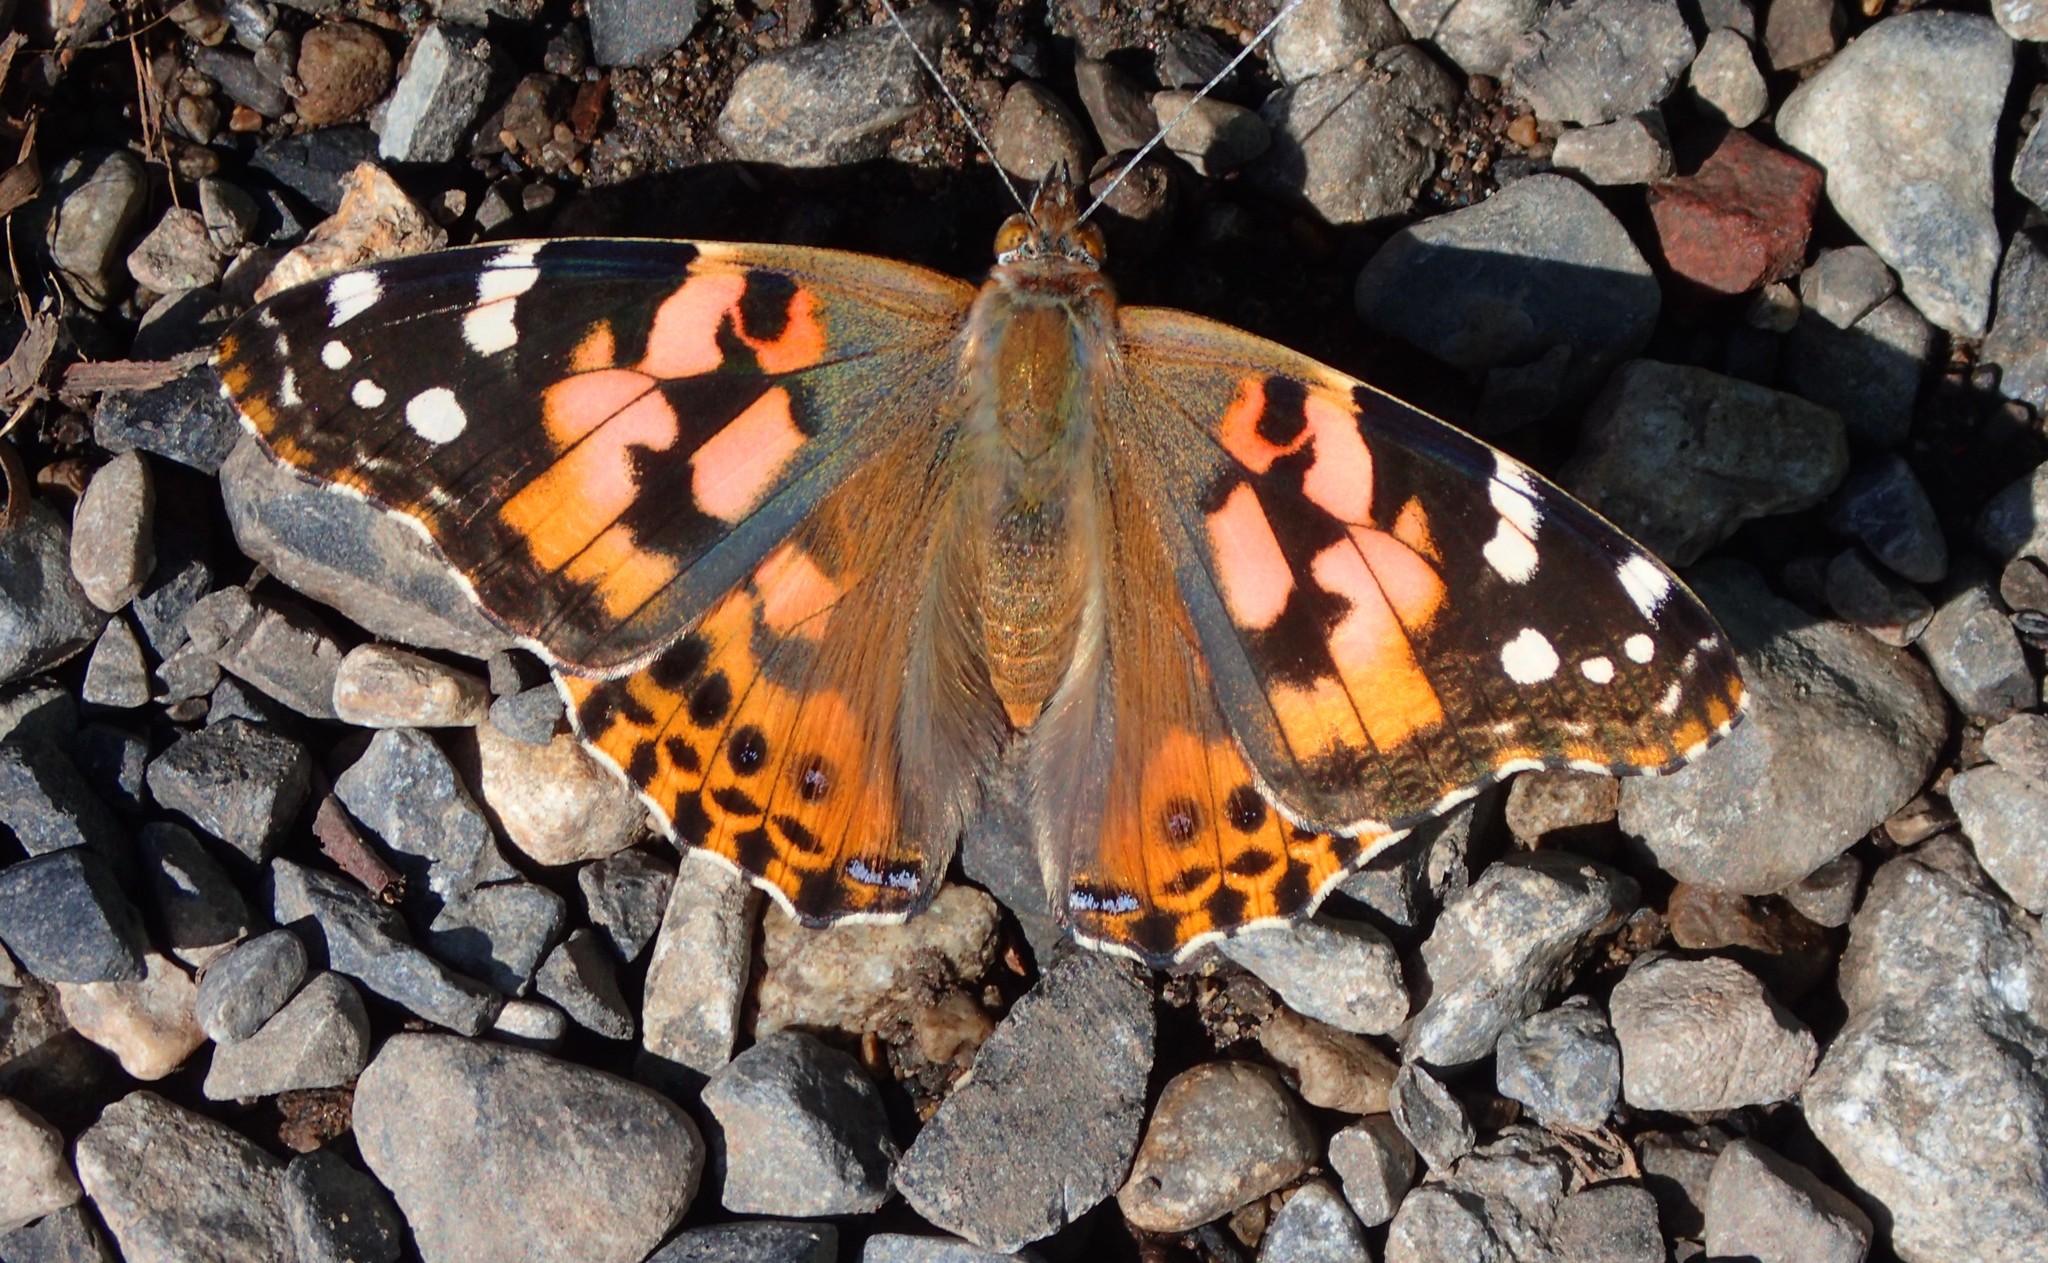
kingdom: Animalia
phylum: Arthropoda
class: Insecta
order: Lepidoptera
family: Nymphalidae
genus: Vanessa
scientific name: Vanessa cardui
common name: Painted lady
